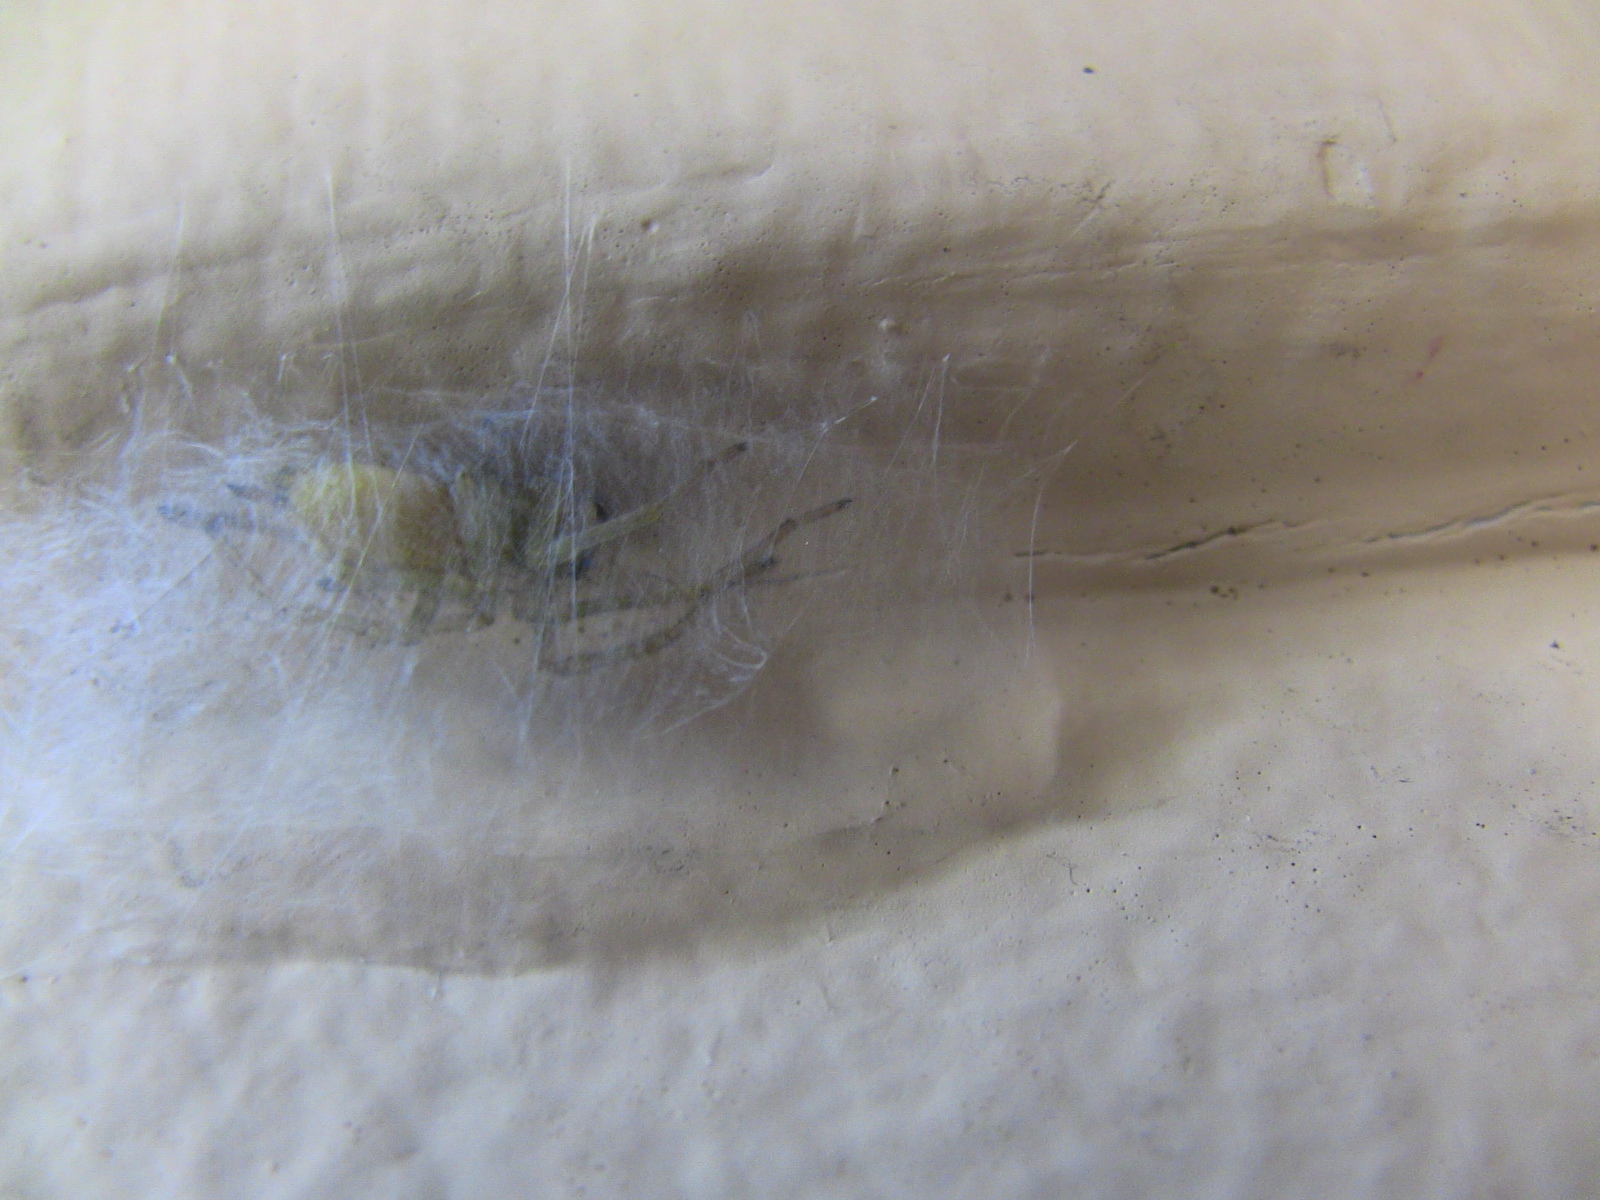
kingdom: Animalia
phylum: Arthropoda
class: Arachnida
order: Araneae
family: Cheiracanthiidae
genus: Cheiracanthium
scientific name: Cheiracanthium mildei
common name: Northern yellow sac spider
